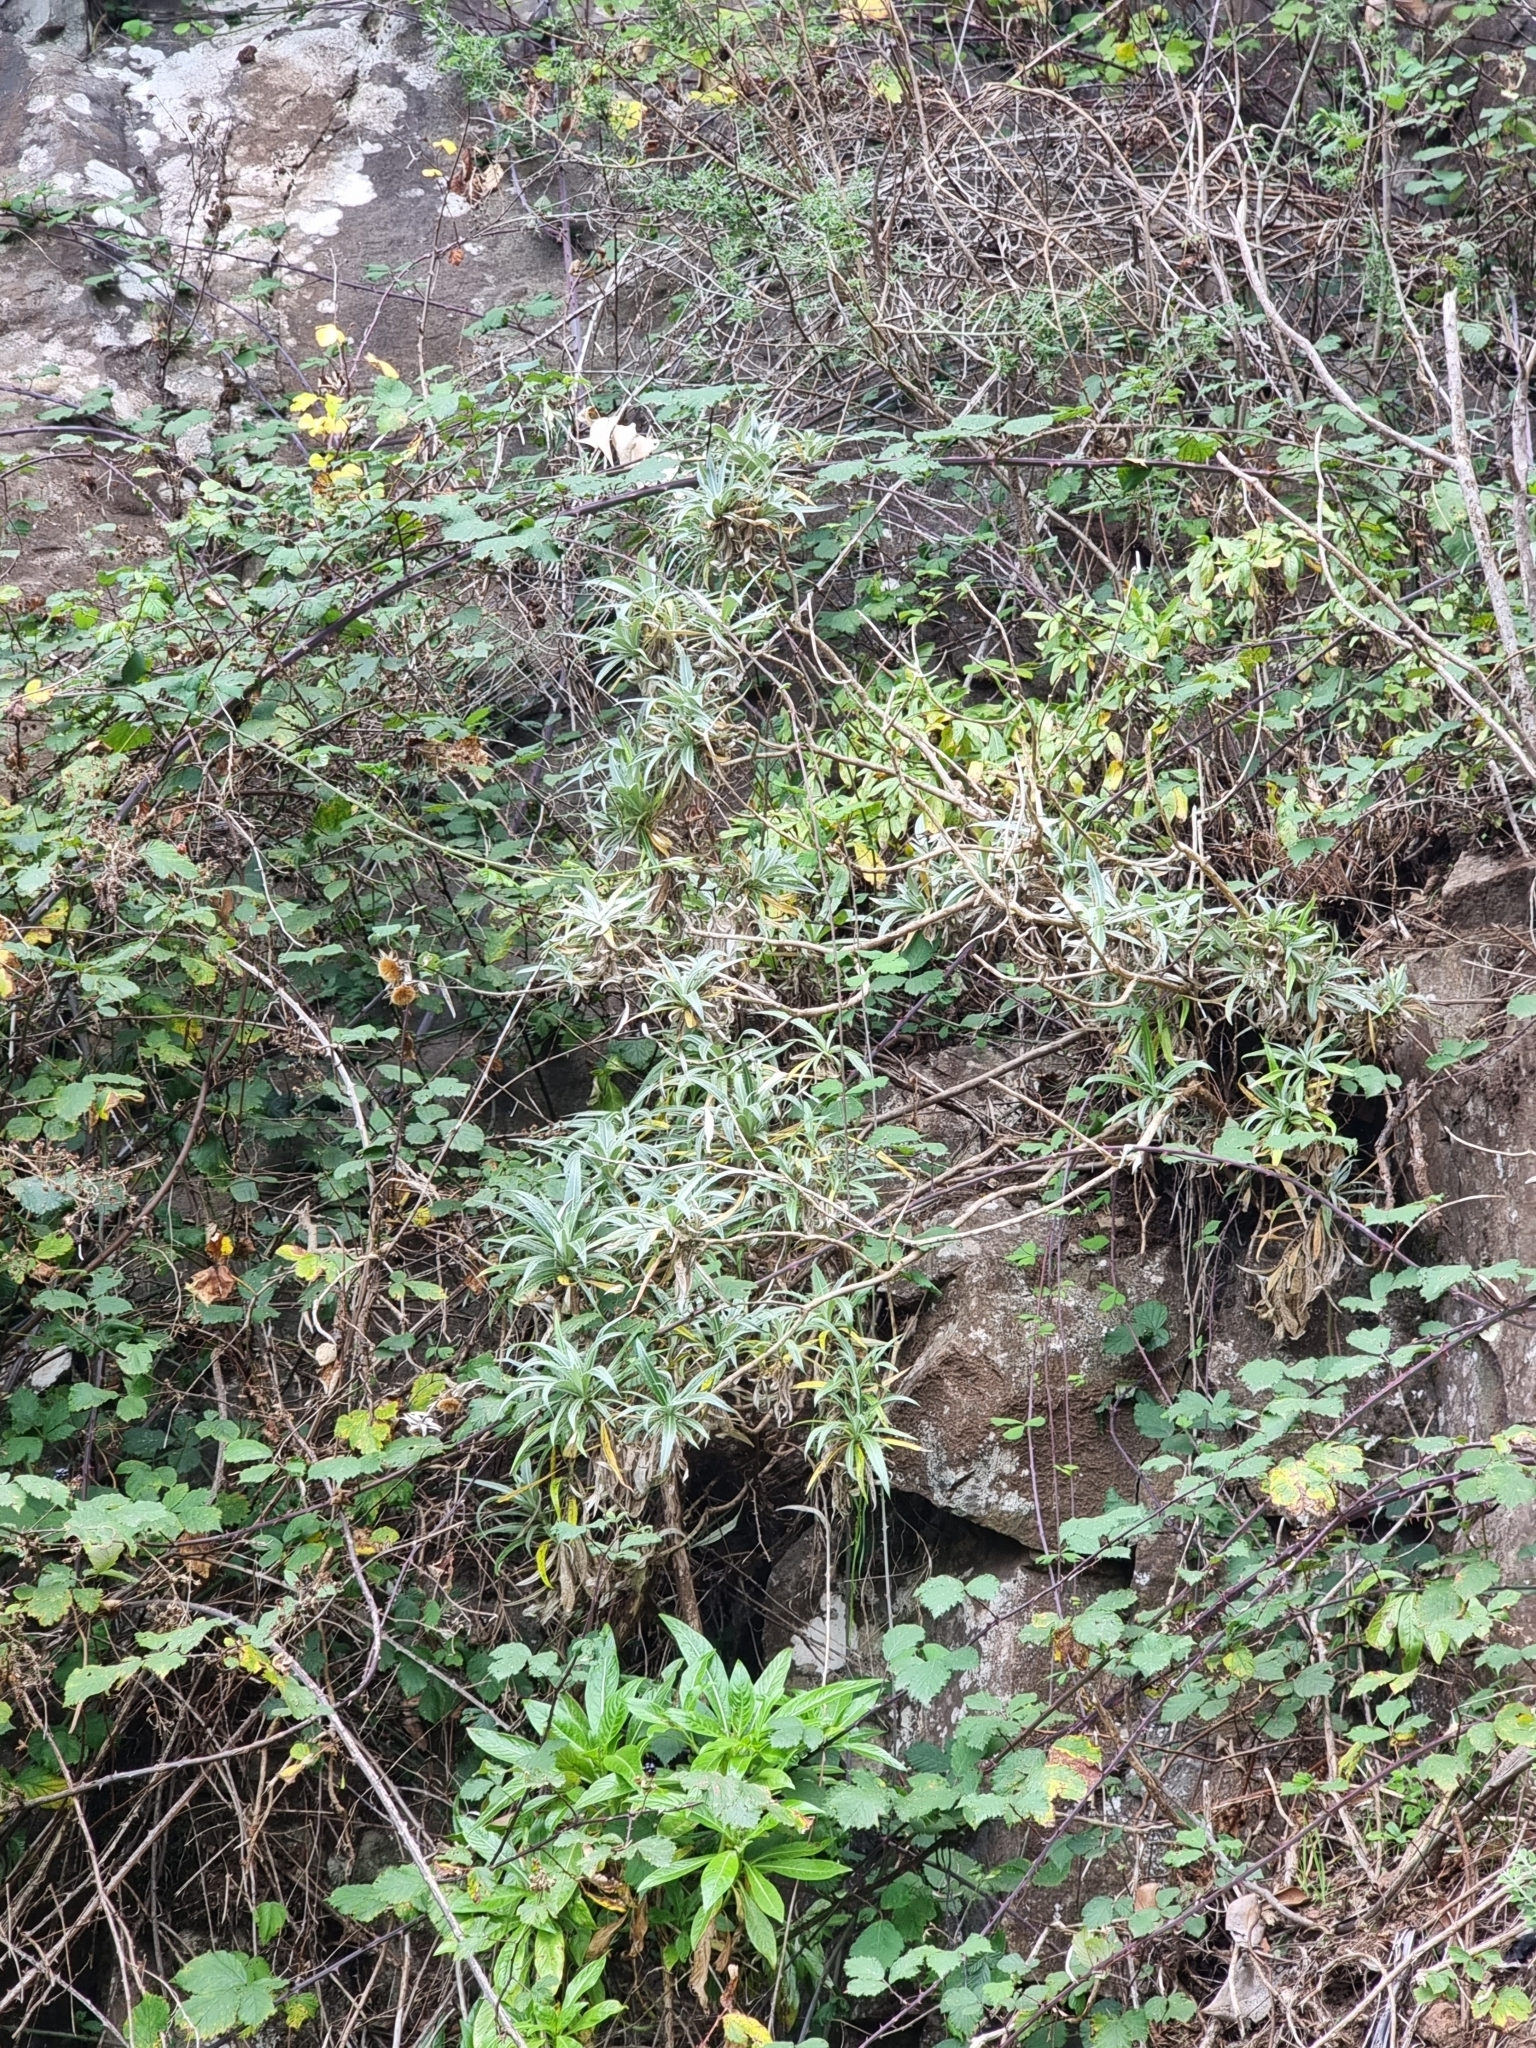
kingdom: Plantae
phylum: Tracheophyta
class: Magnoliopsida
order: Asterales
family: Asteraceae
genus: Carlina
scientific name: Carlina salicifolia
